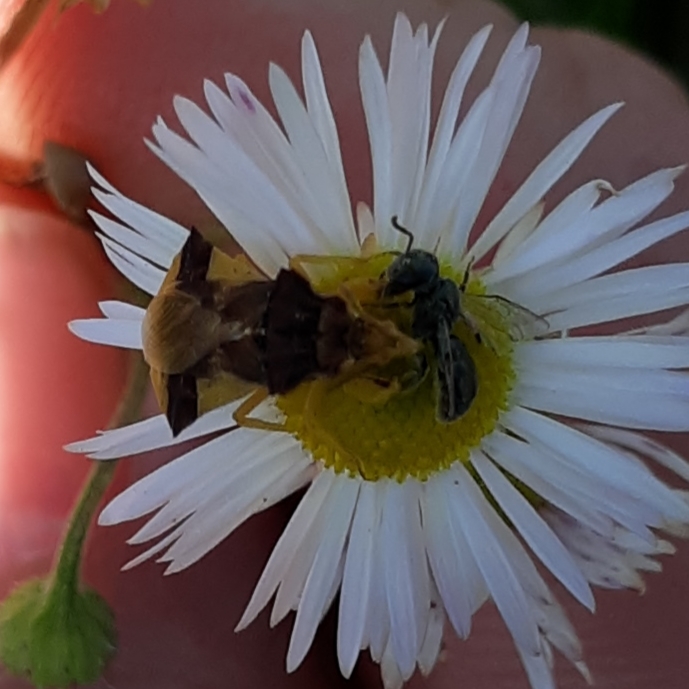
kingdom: Animalia
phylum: Arthropoda
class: Insecta
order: Hemiptera
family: Reduviidae
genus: Phymata
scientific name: Phymata pennsylvanica
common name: Pennsylvania ambush bug
